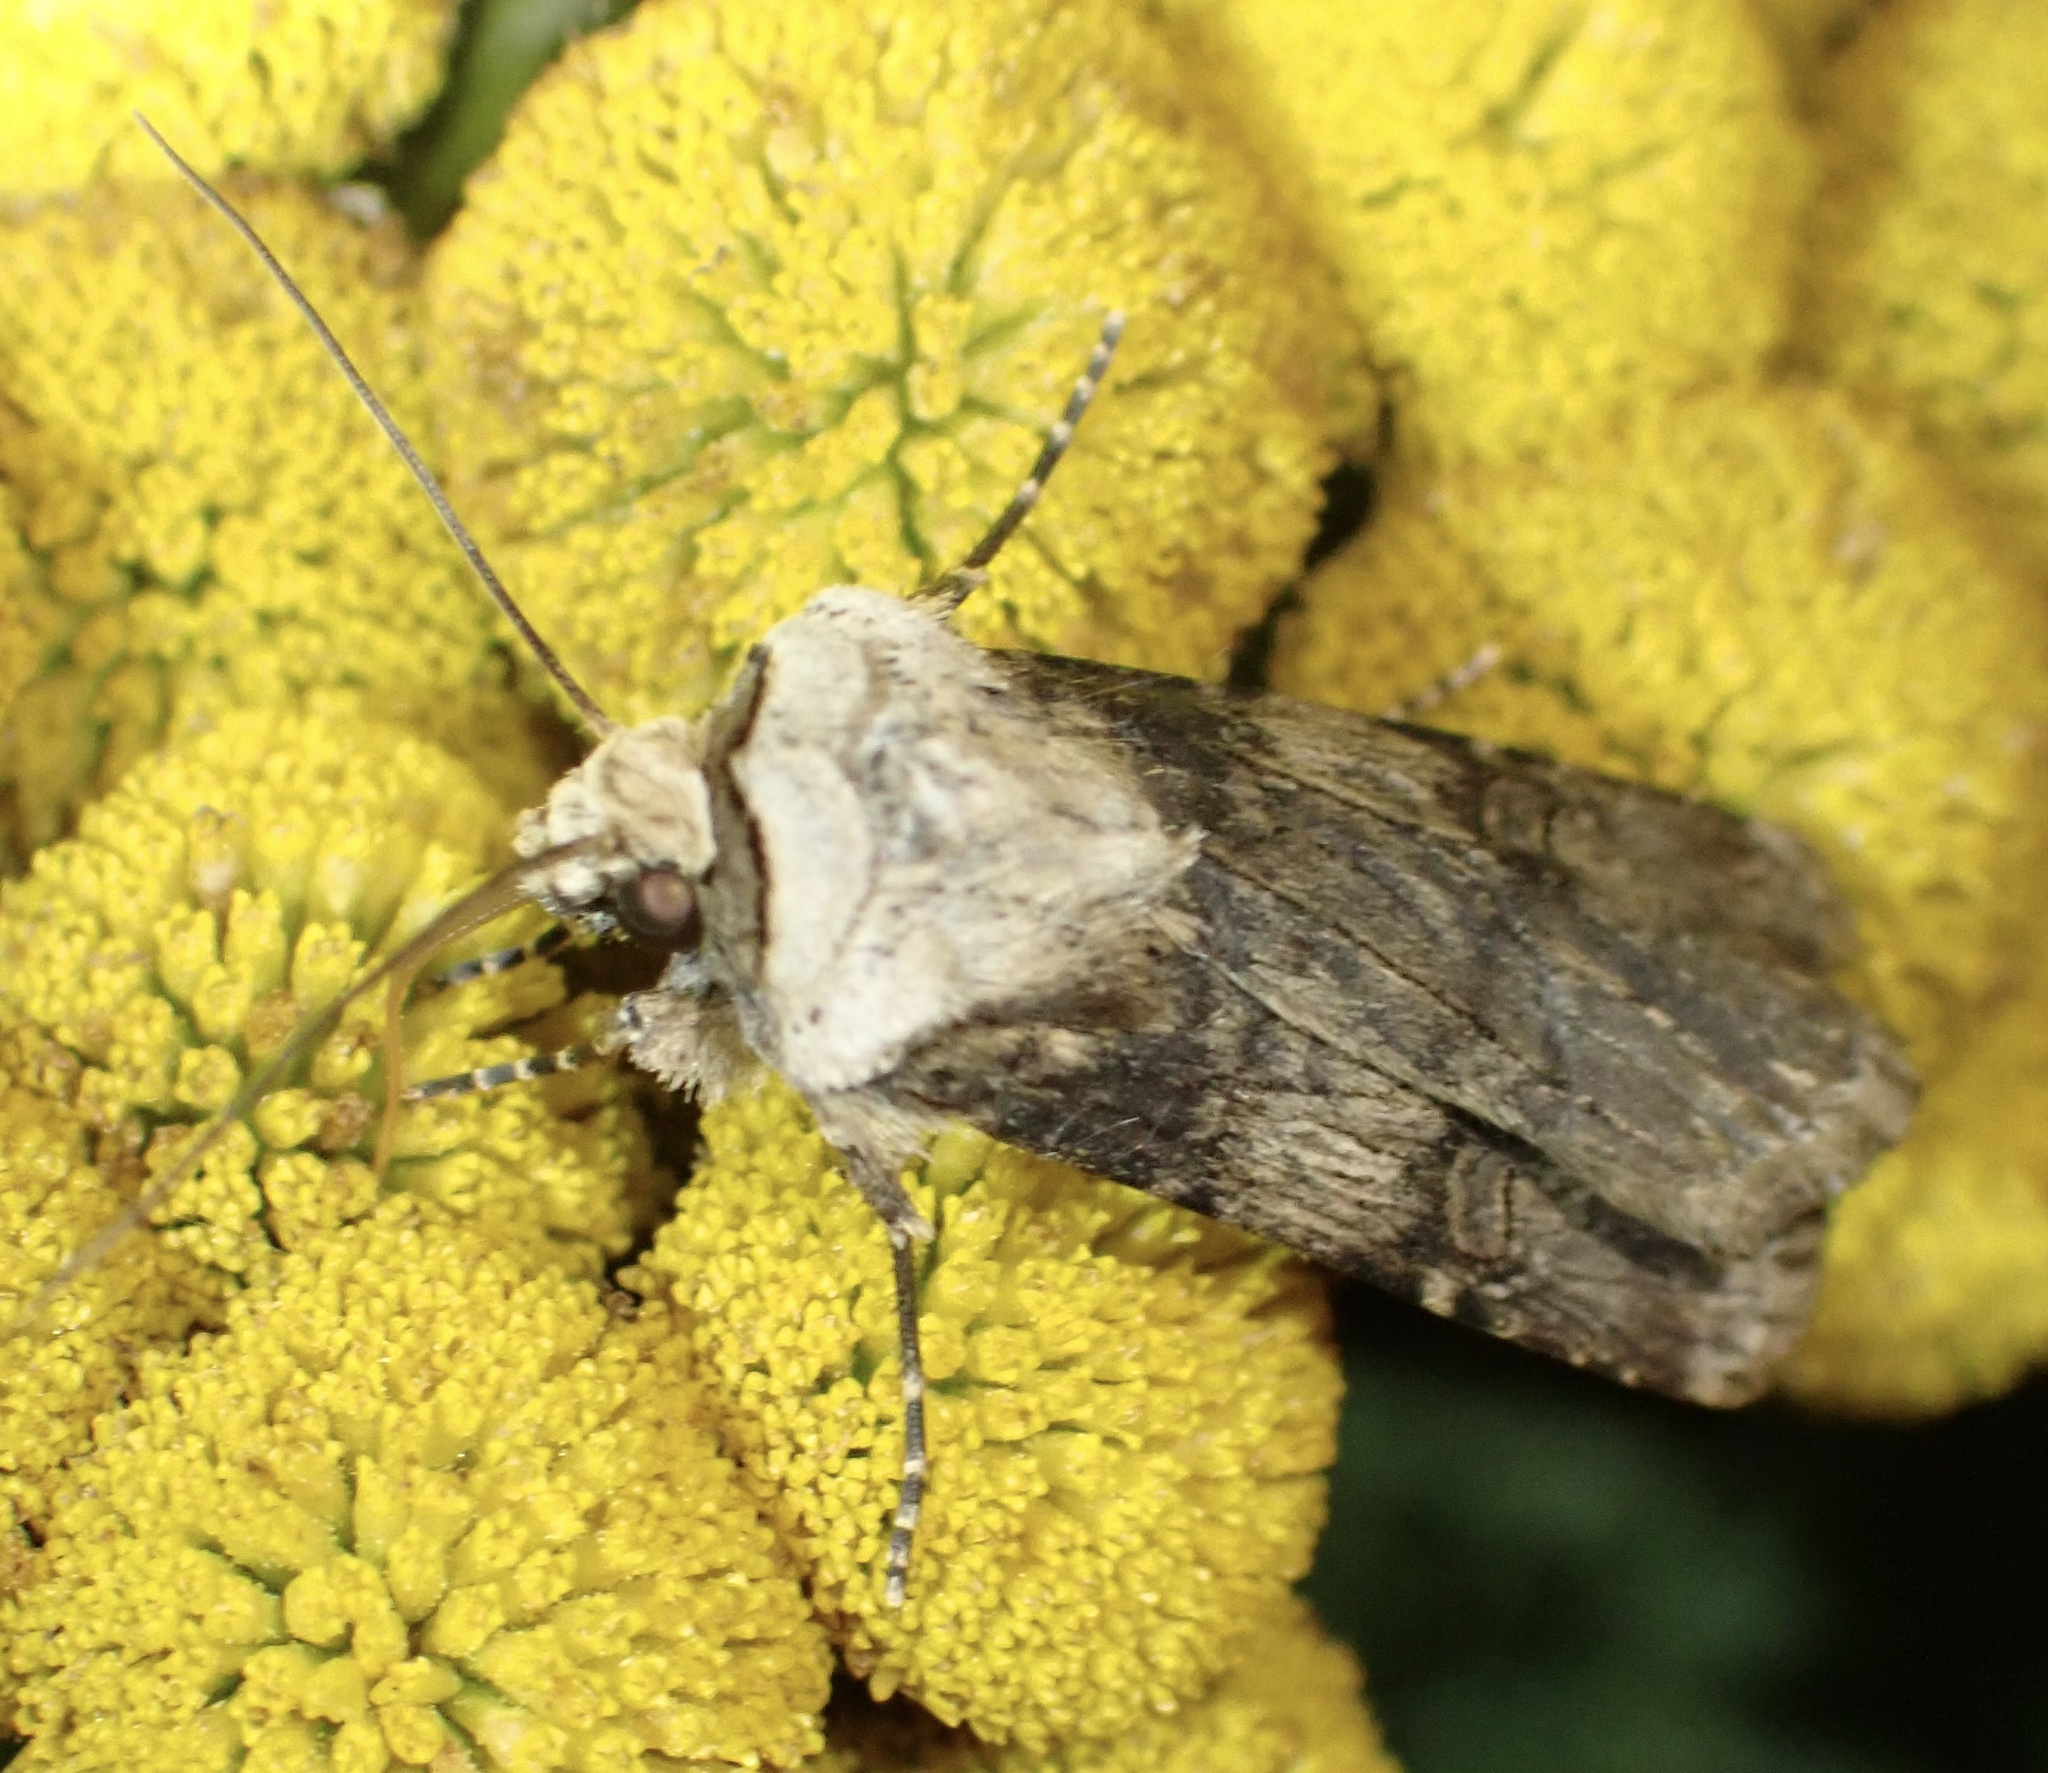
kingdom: Animalia
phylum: Arthropoda
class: Insecta
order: Lepidoptera
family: Noctuidae
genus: Agrotis
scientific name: Agrotis puta
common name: Shuttle-shaped dart
